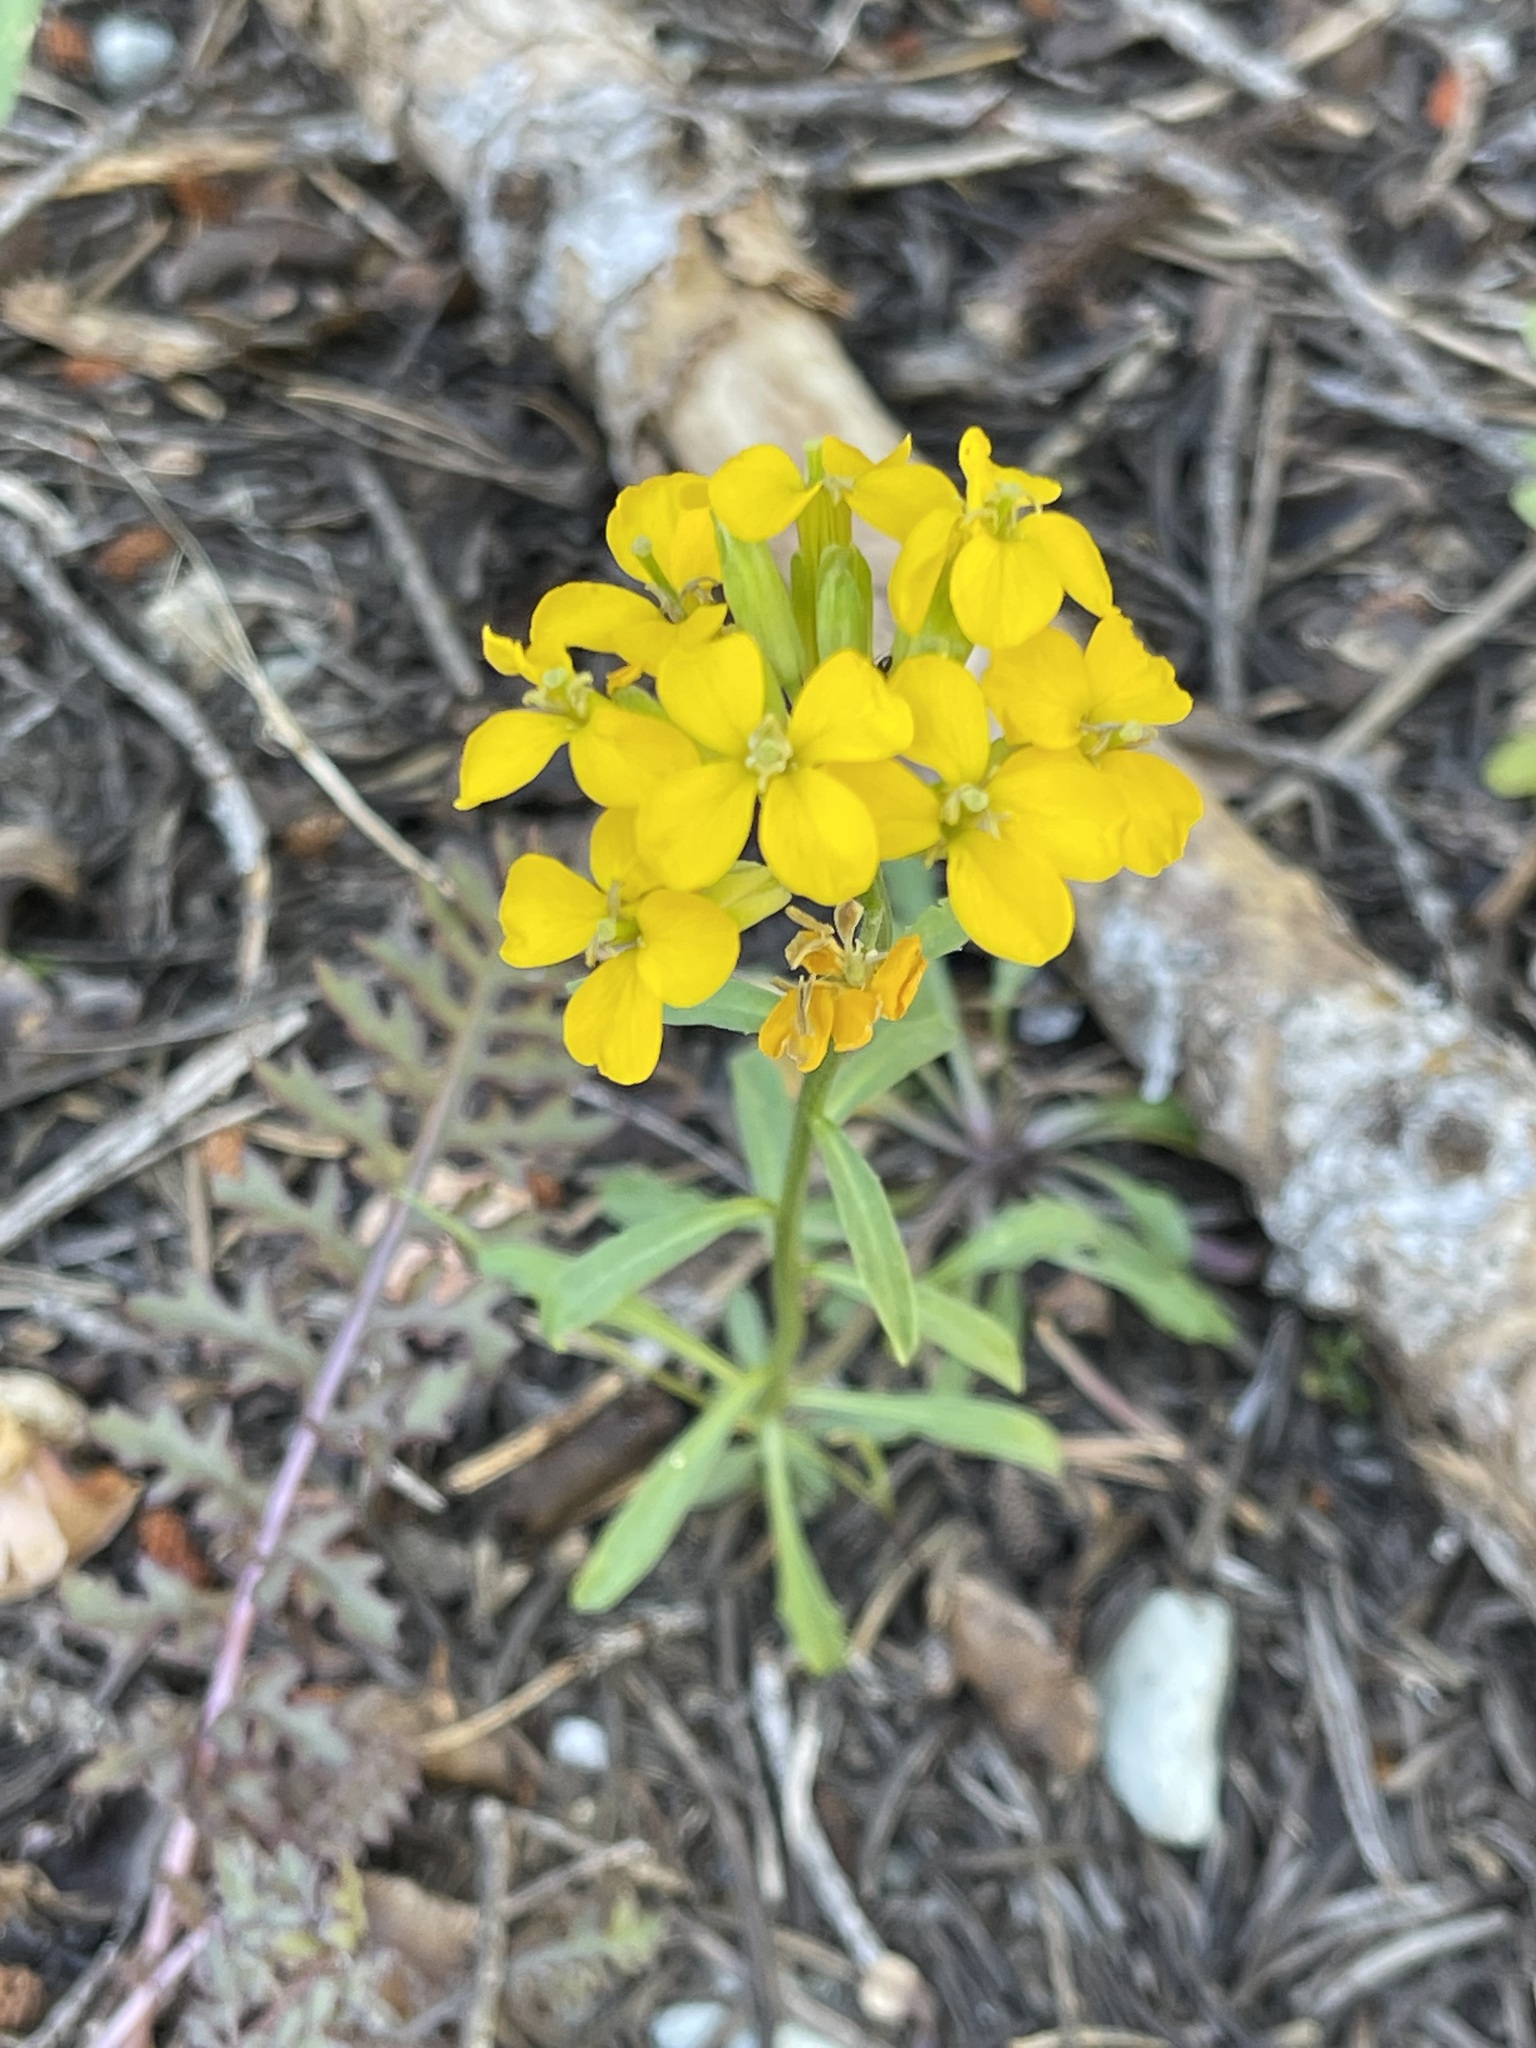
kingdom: Plantae
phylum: Tracheophyta
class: Magnoliopsida
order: Brassicales
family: Brassicaceae
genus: Erysimum
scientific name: Erysimum capitatum
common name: Western wallflower
